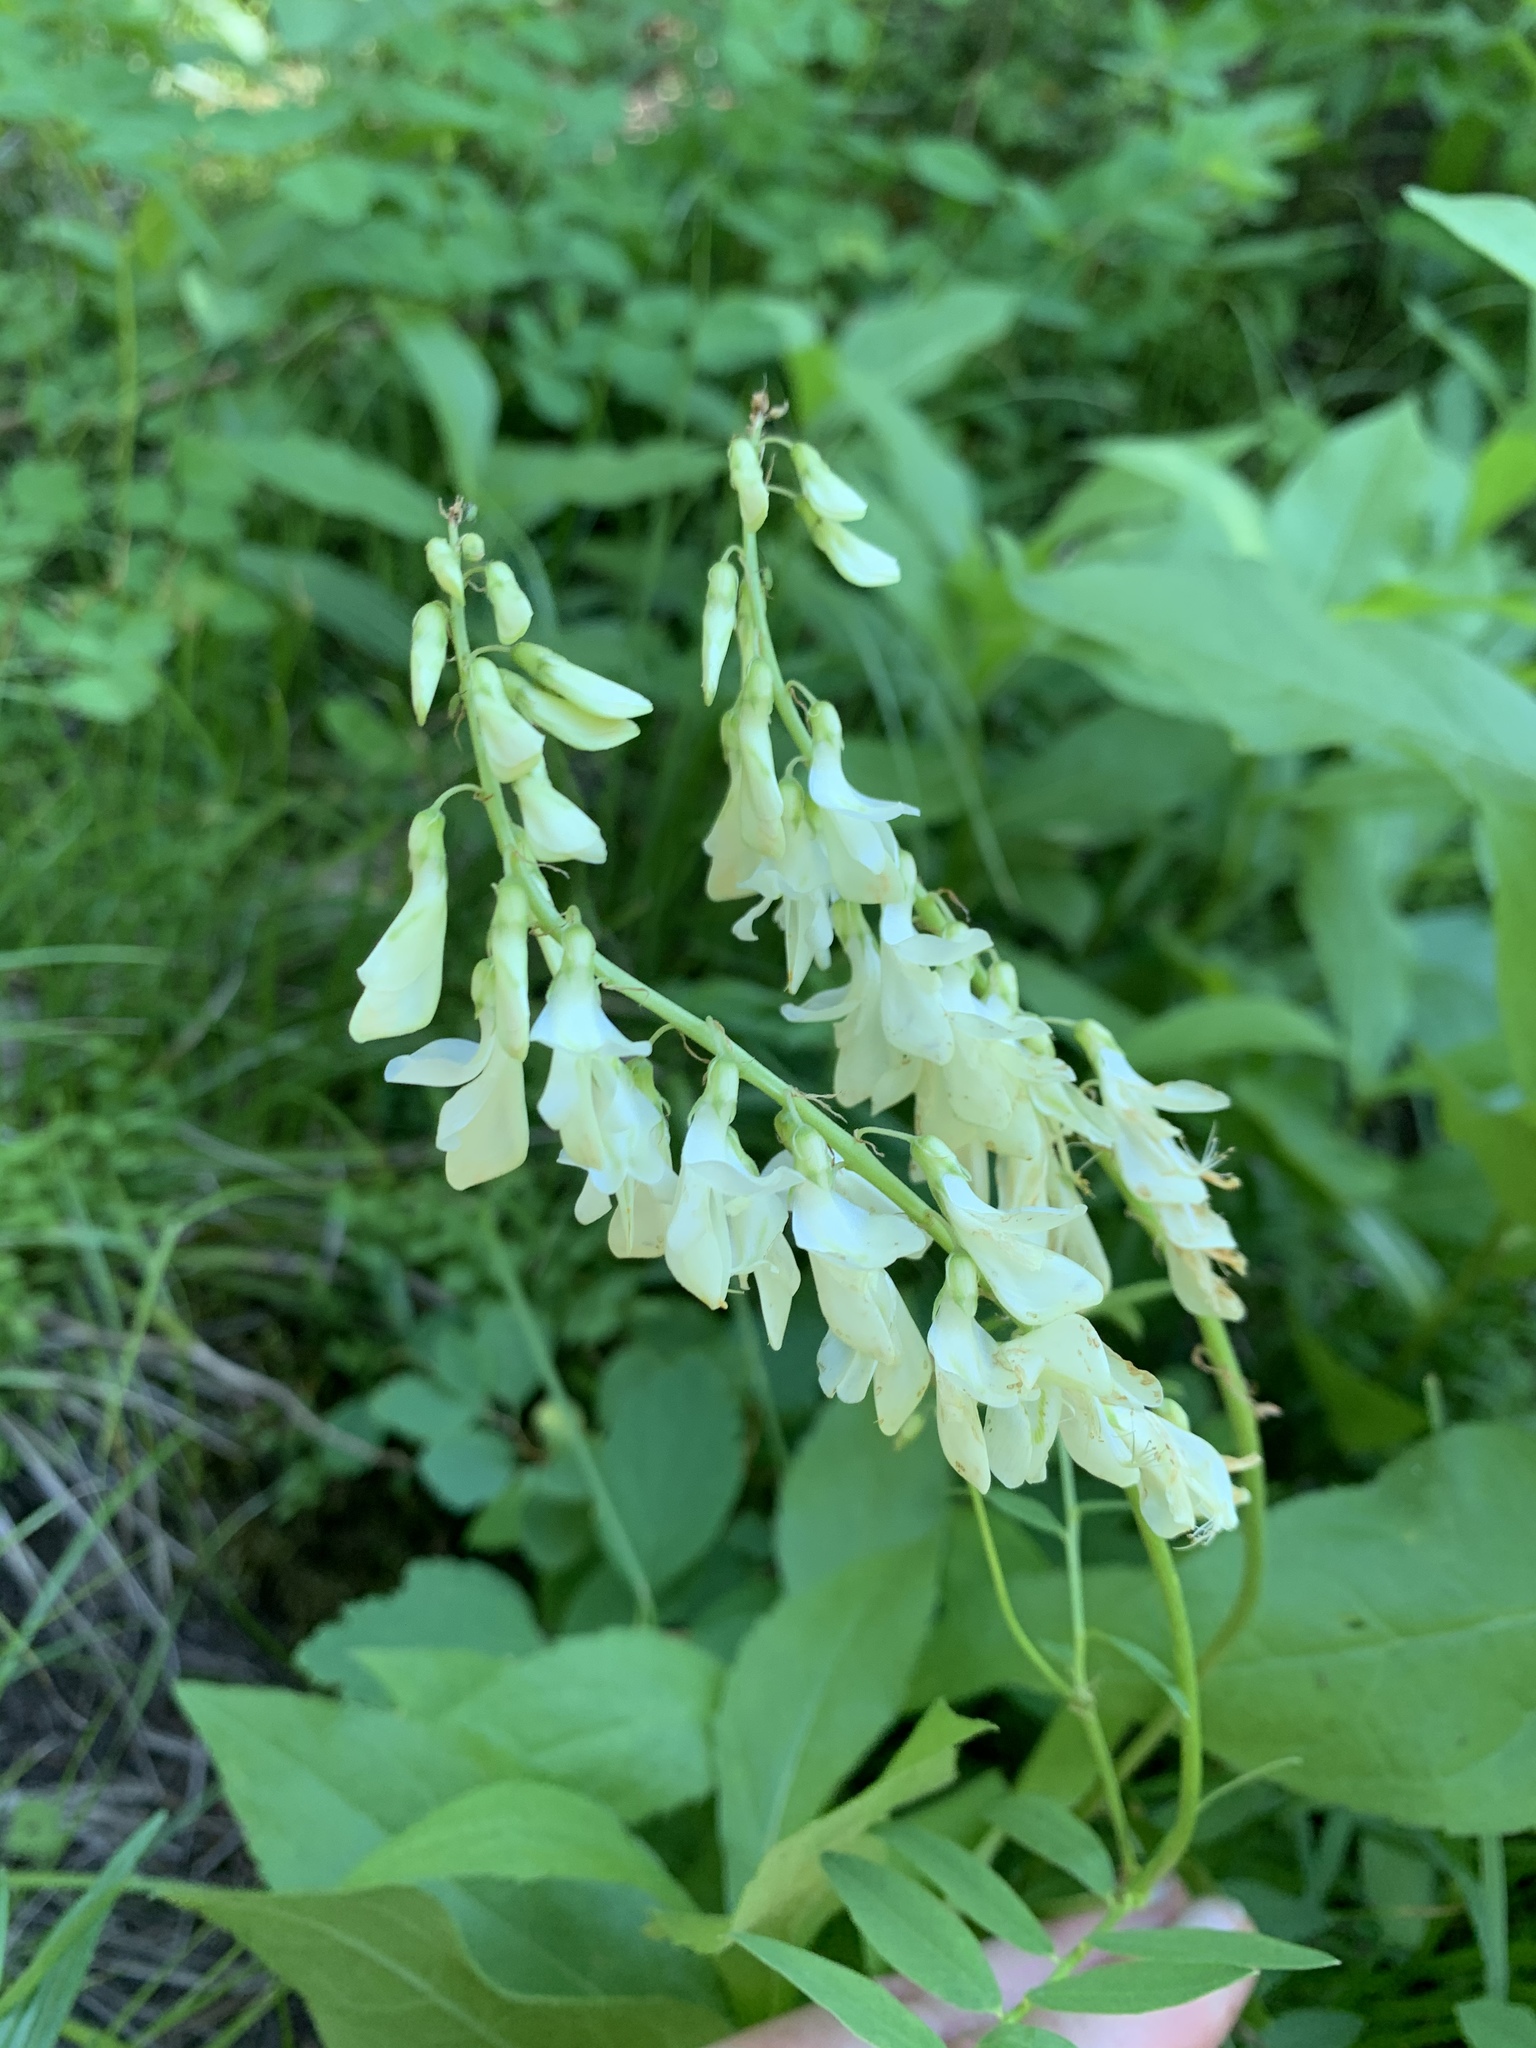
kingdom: Plantae
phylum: Tracheophyta
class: Magnoliopsida
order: Fabales
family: Fabaceae
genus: Hedysarum
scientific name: Hedysarum sulphurescens
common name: Sulphur hedysarum
